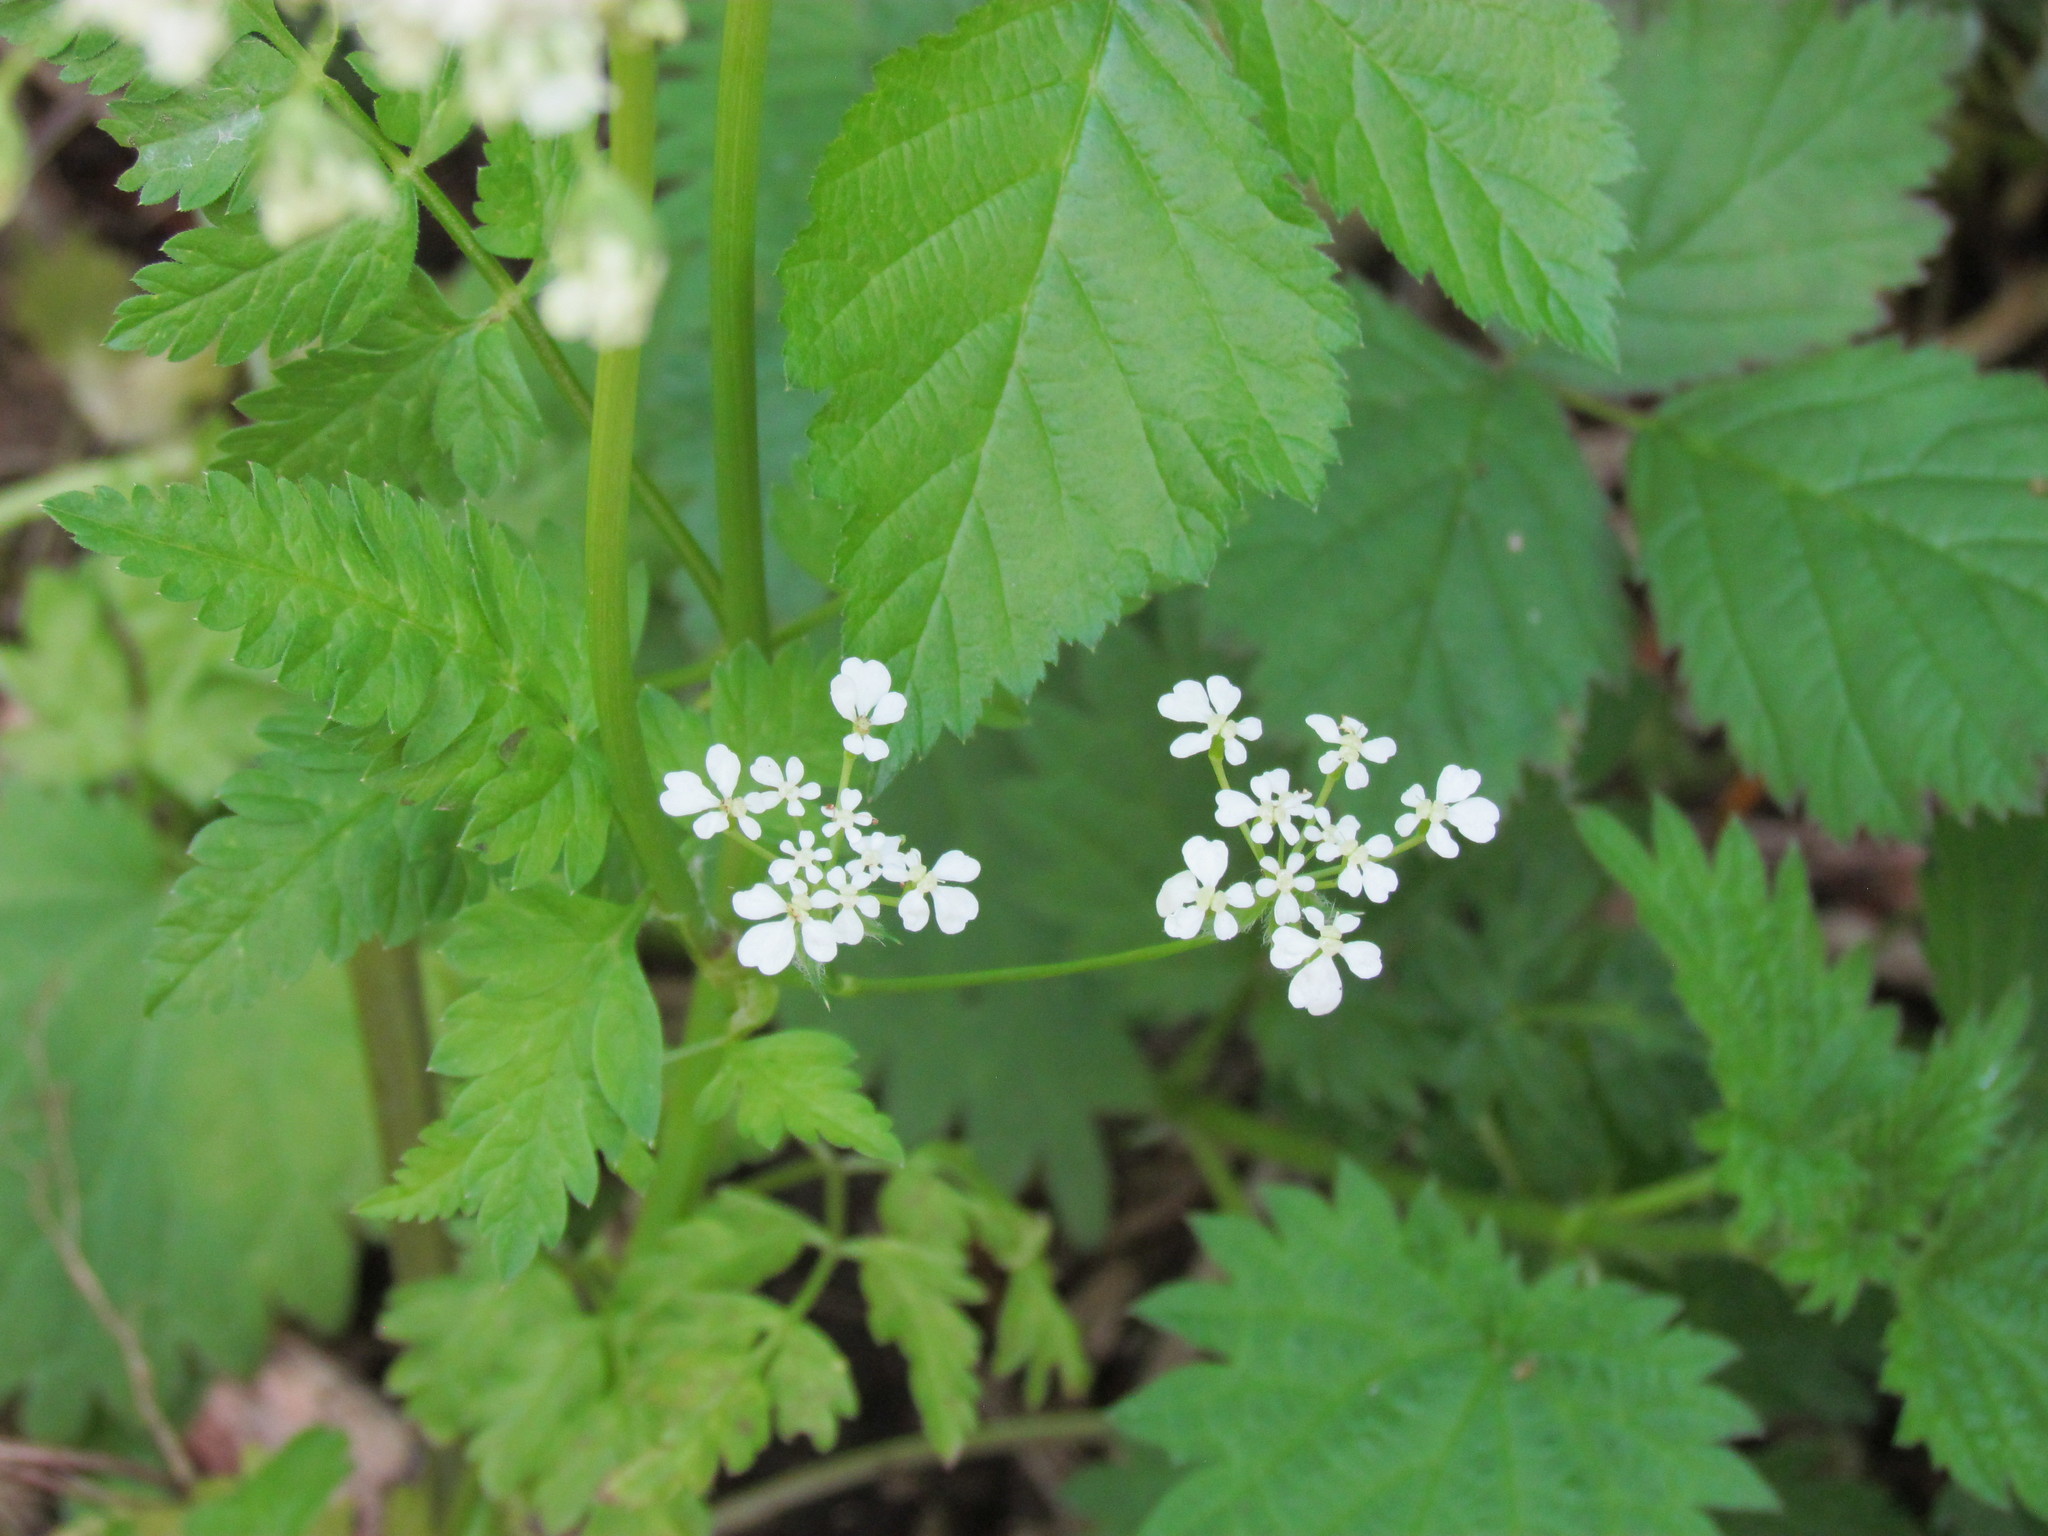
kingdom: Plantae
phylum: Tracheophyta
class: Magnoliopsida
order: Apiales
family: Apiaceae
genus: Anthriscus
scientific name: Anthriscus sylvestris
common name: Cow parsley
